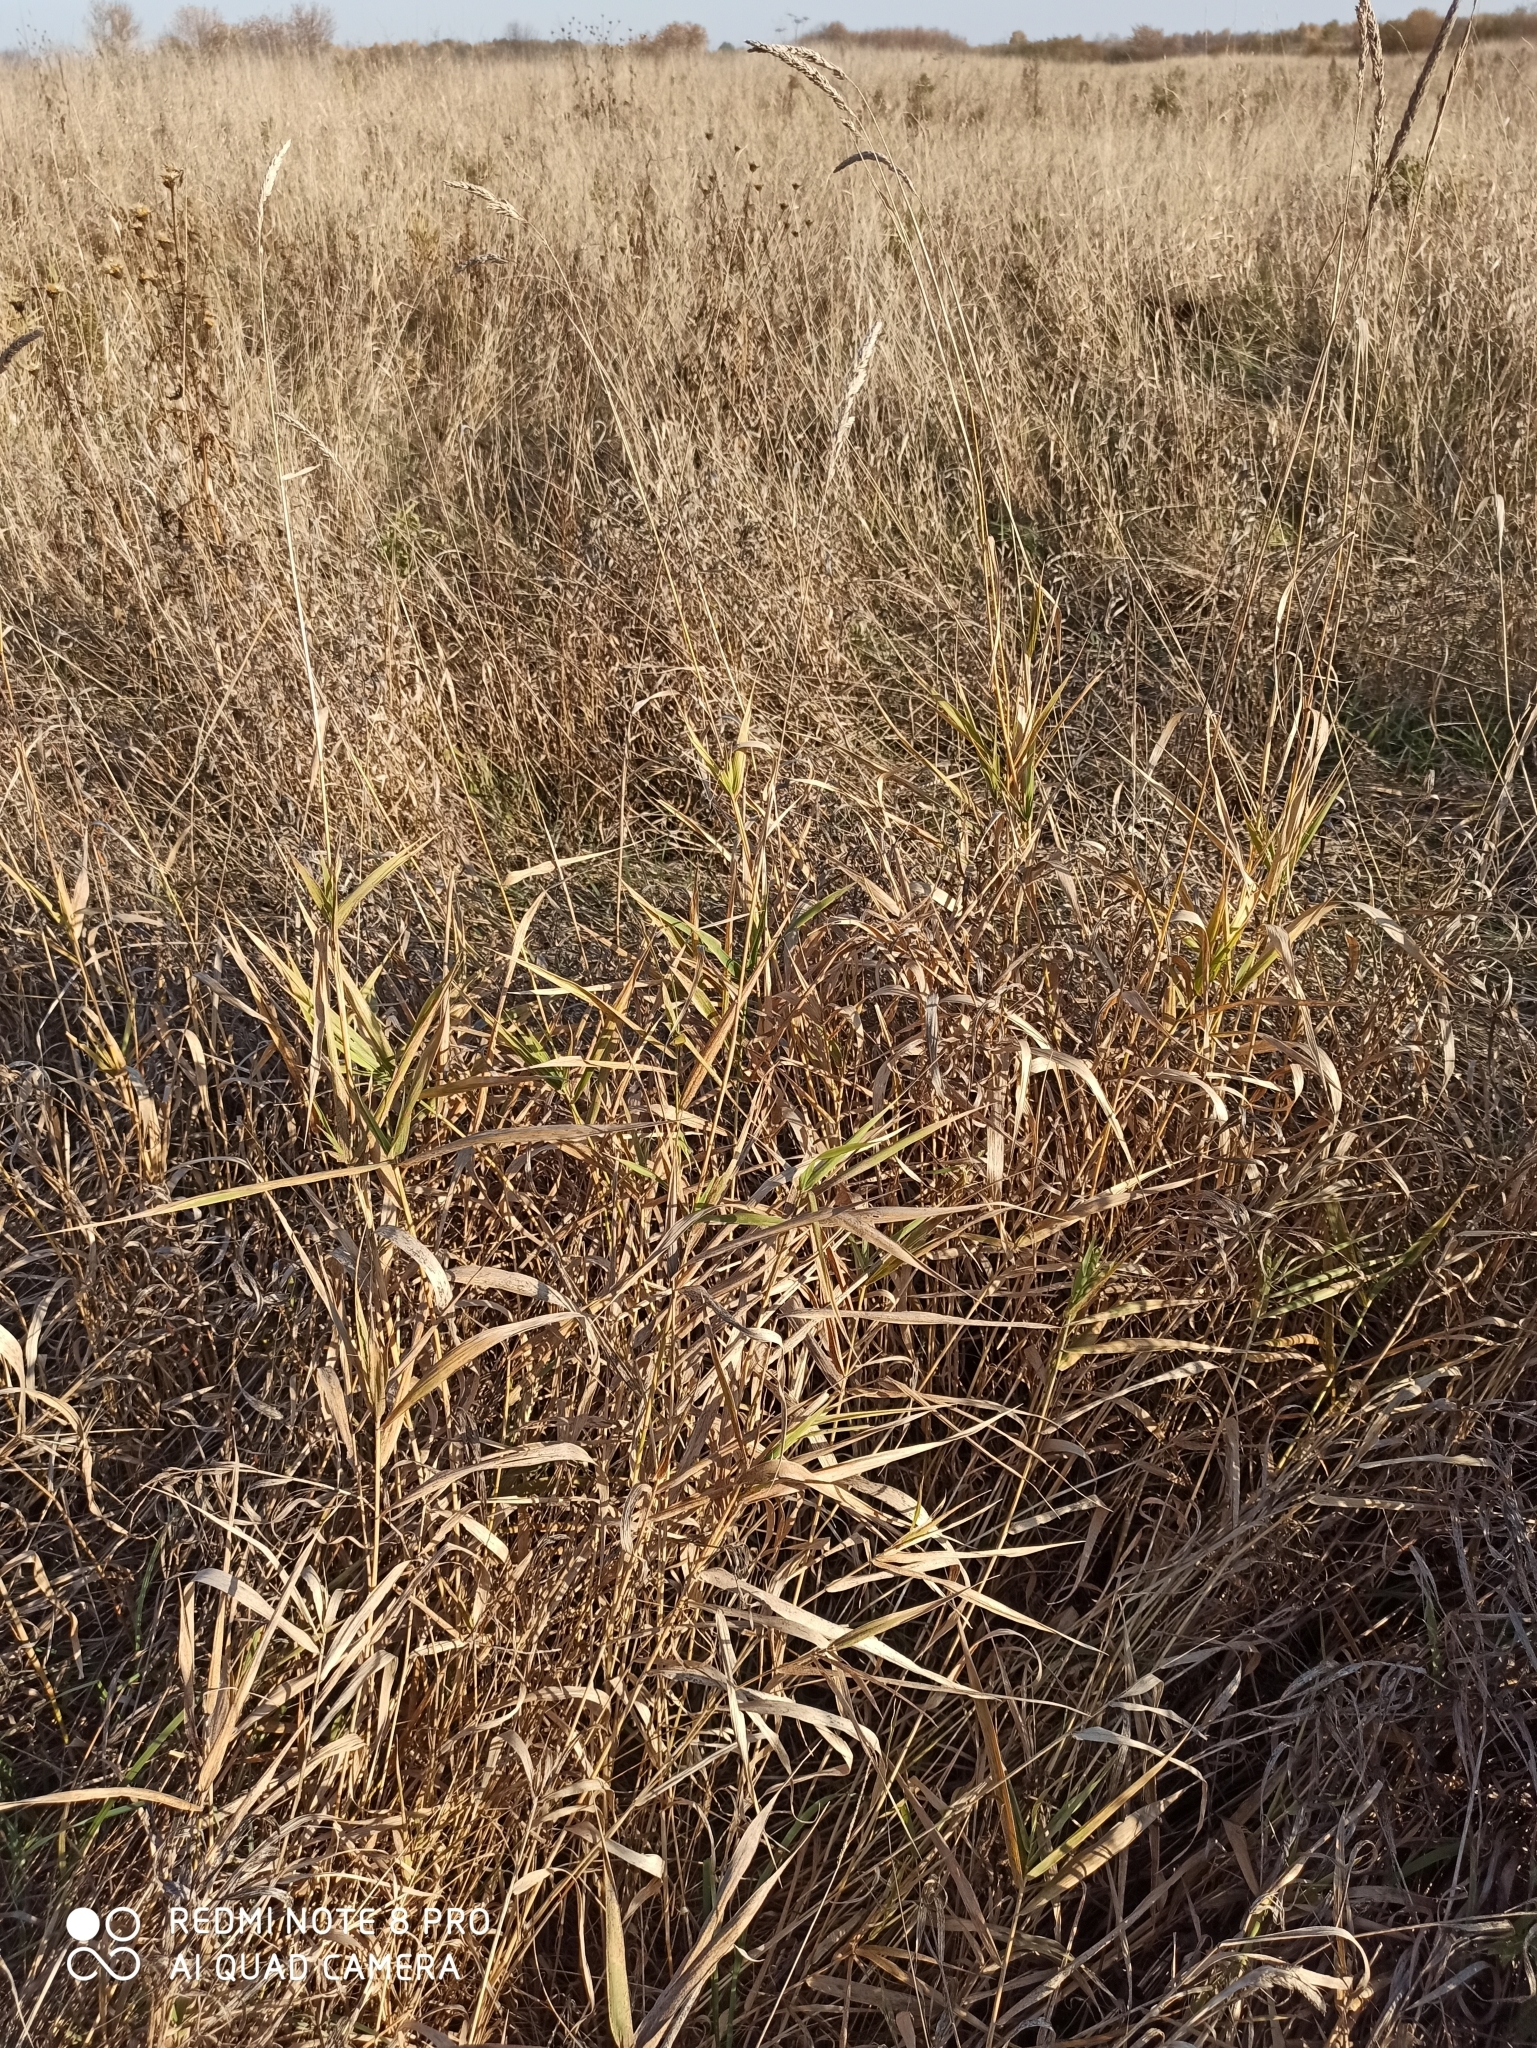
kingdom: Plantae
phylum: Tracheophyta
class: Liliopsida
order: Poales
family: Poaceae
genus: Phalaris
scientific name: Phalaris arundinacea
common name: Reed canary-grass
